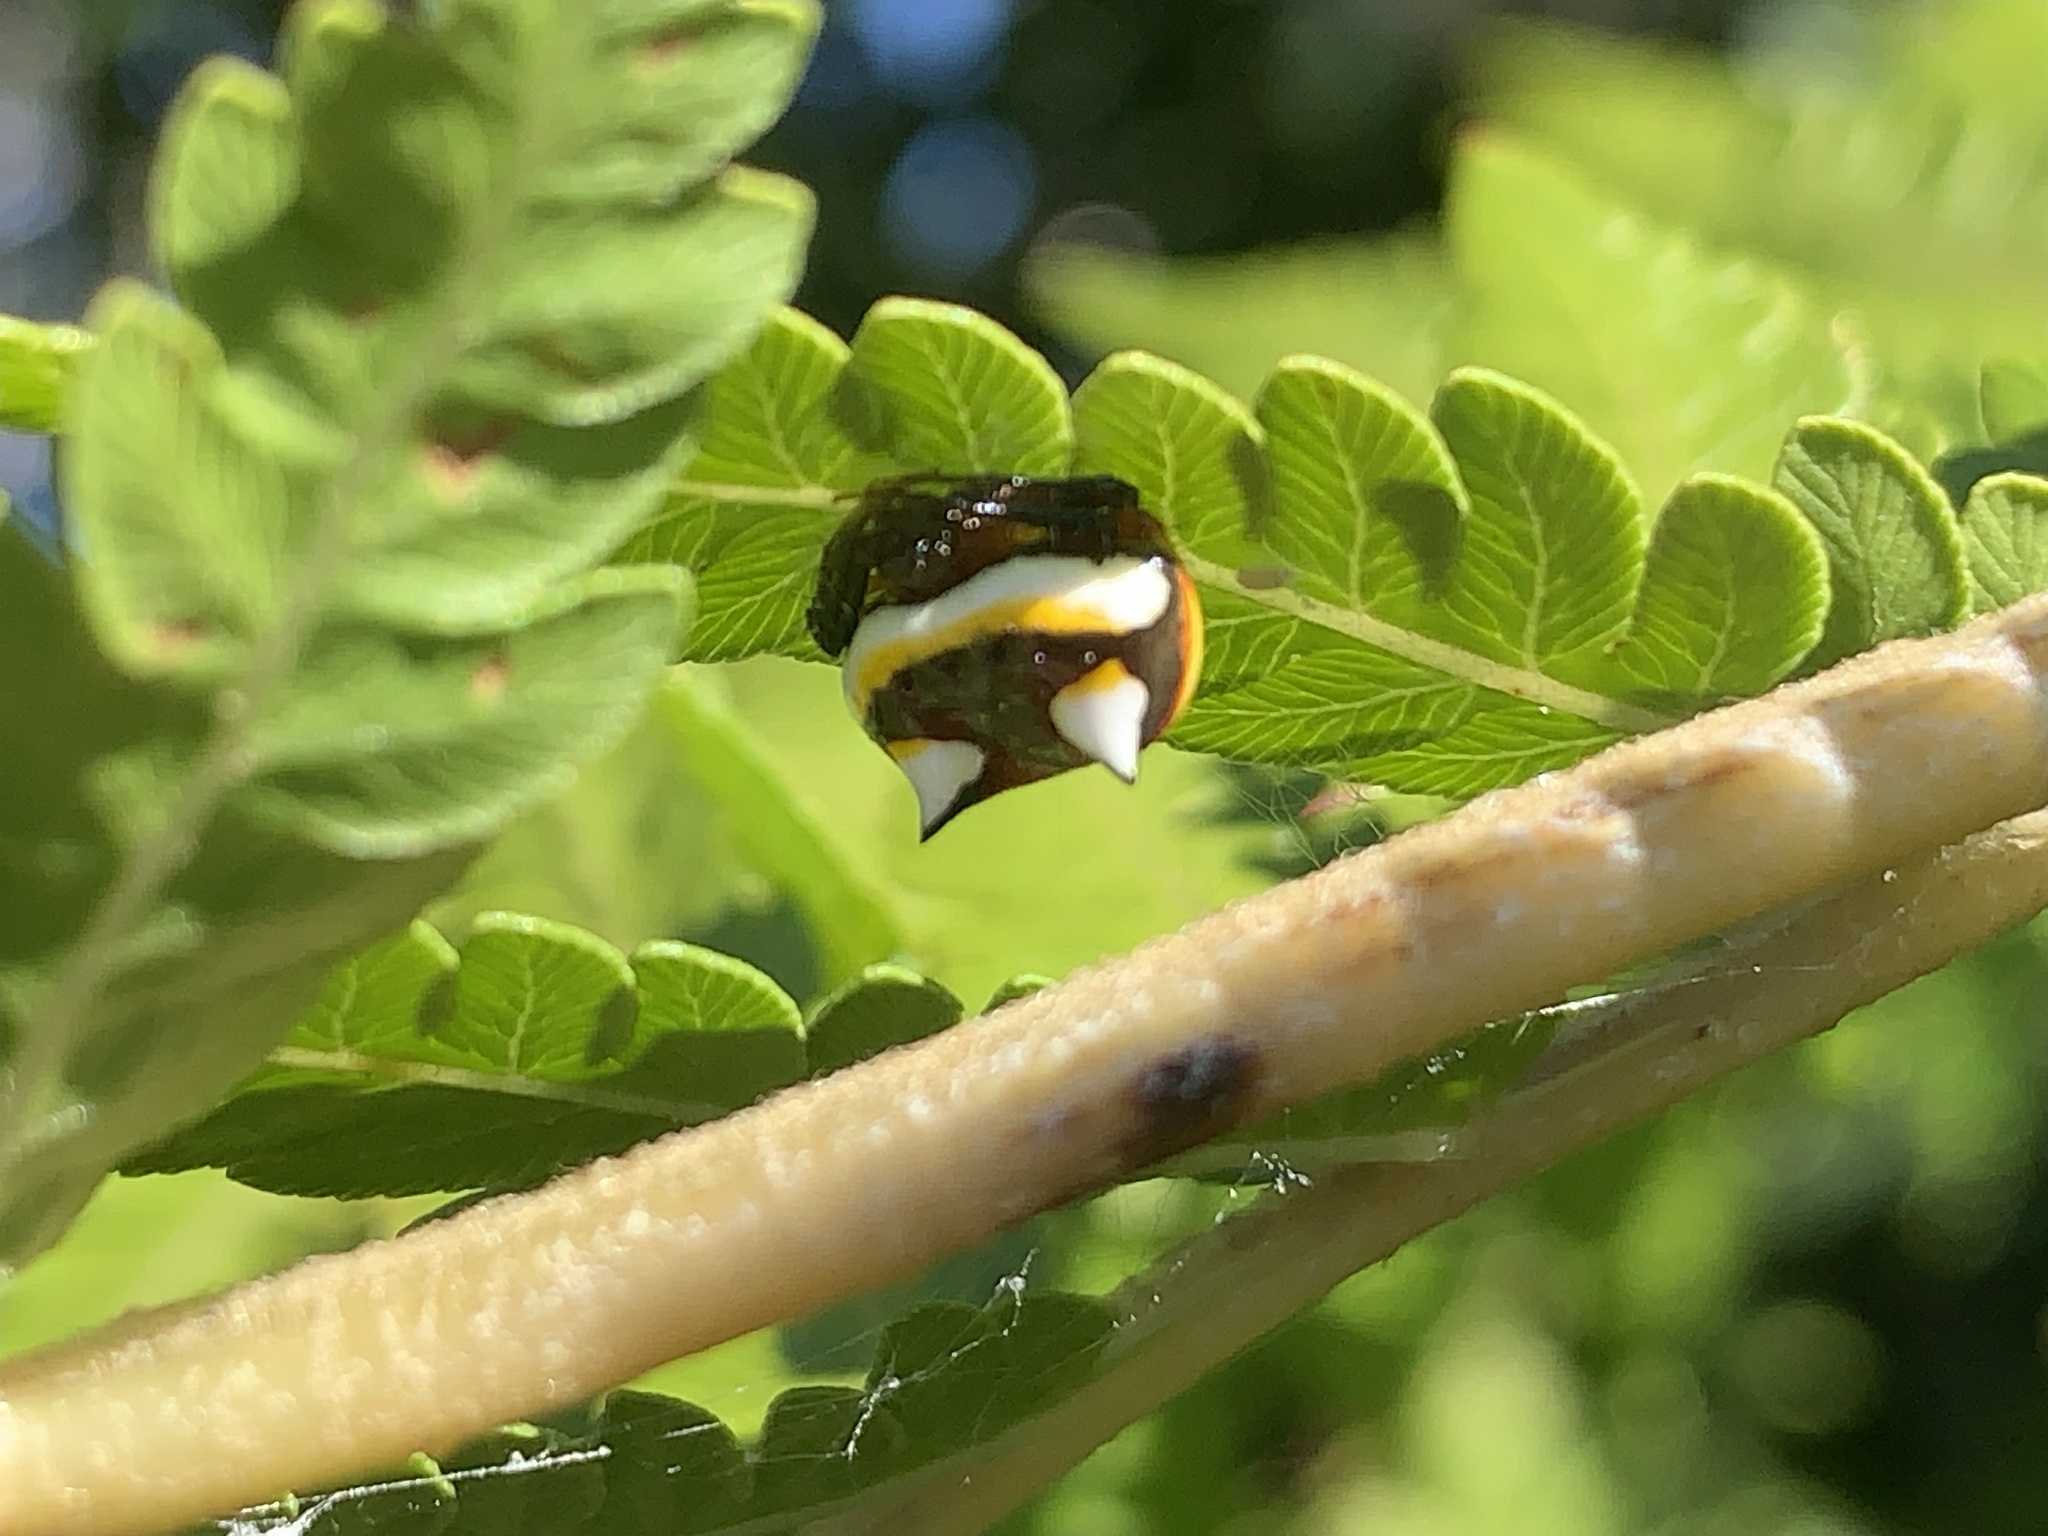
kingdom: Animalia
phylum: Arthropoda
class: Arachnida
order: Araneae
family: Araneidae
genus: Poecilopachys
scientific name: Poecilopachys australasia
